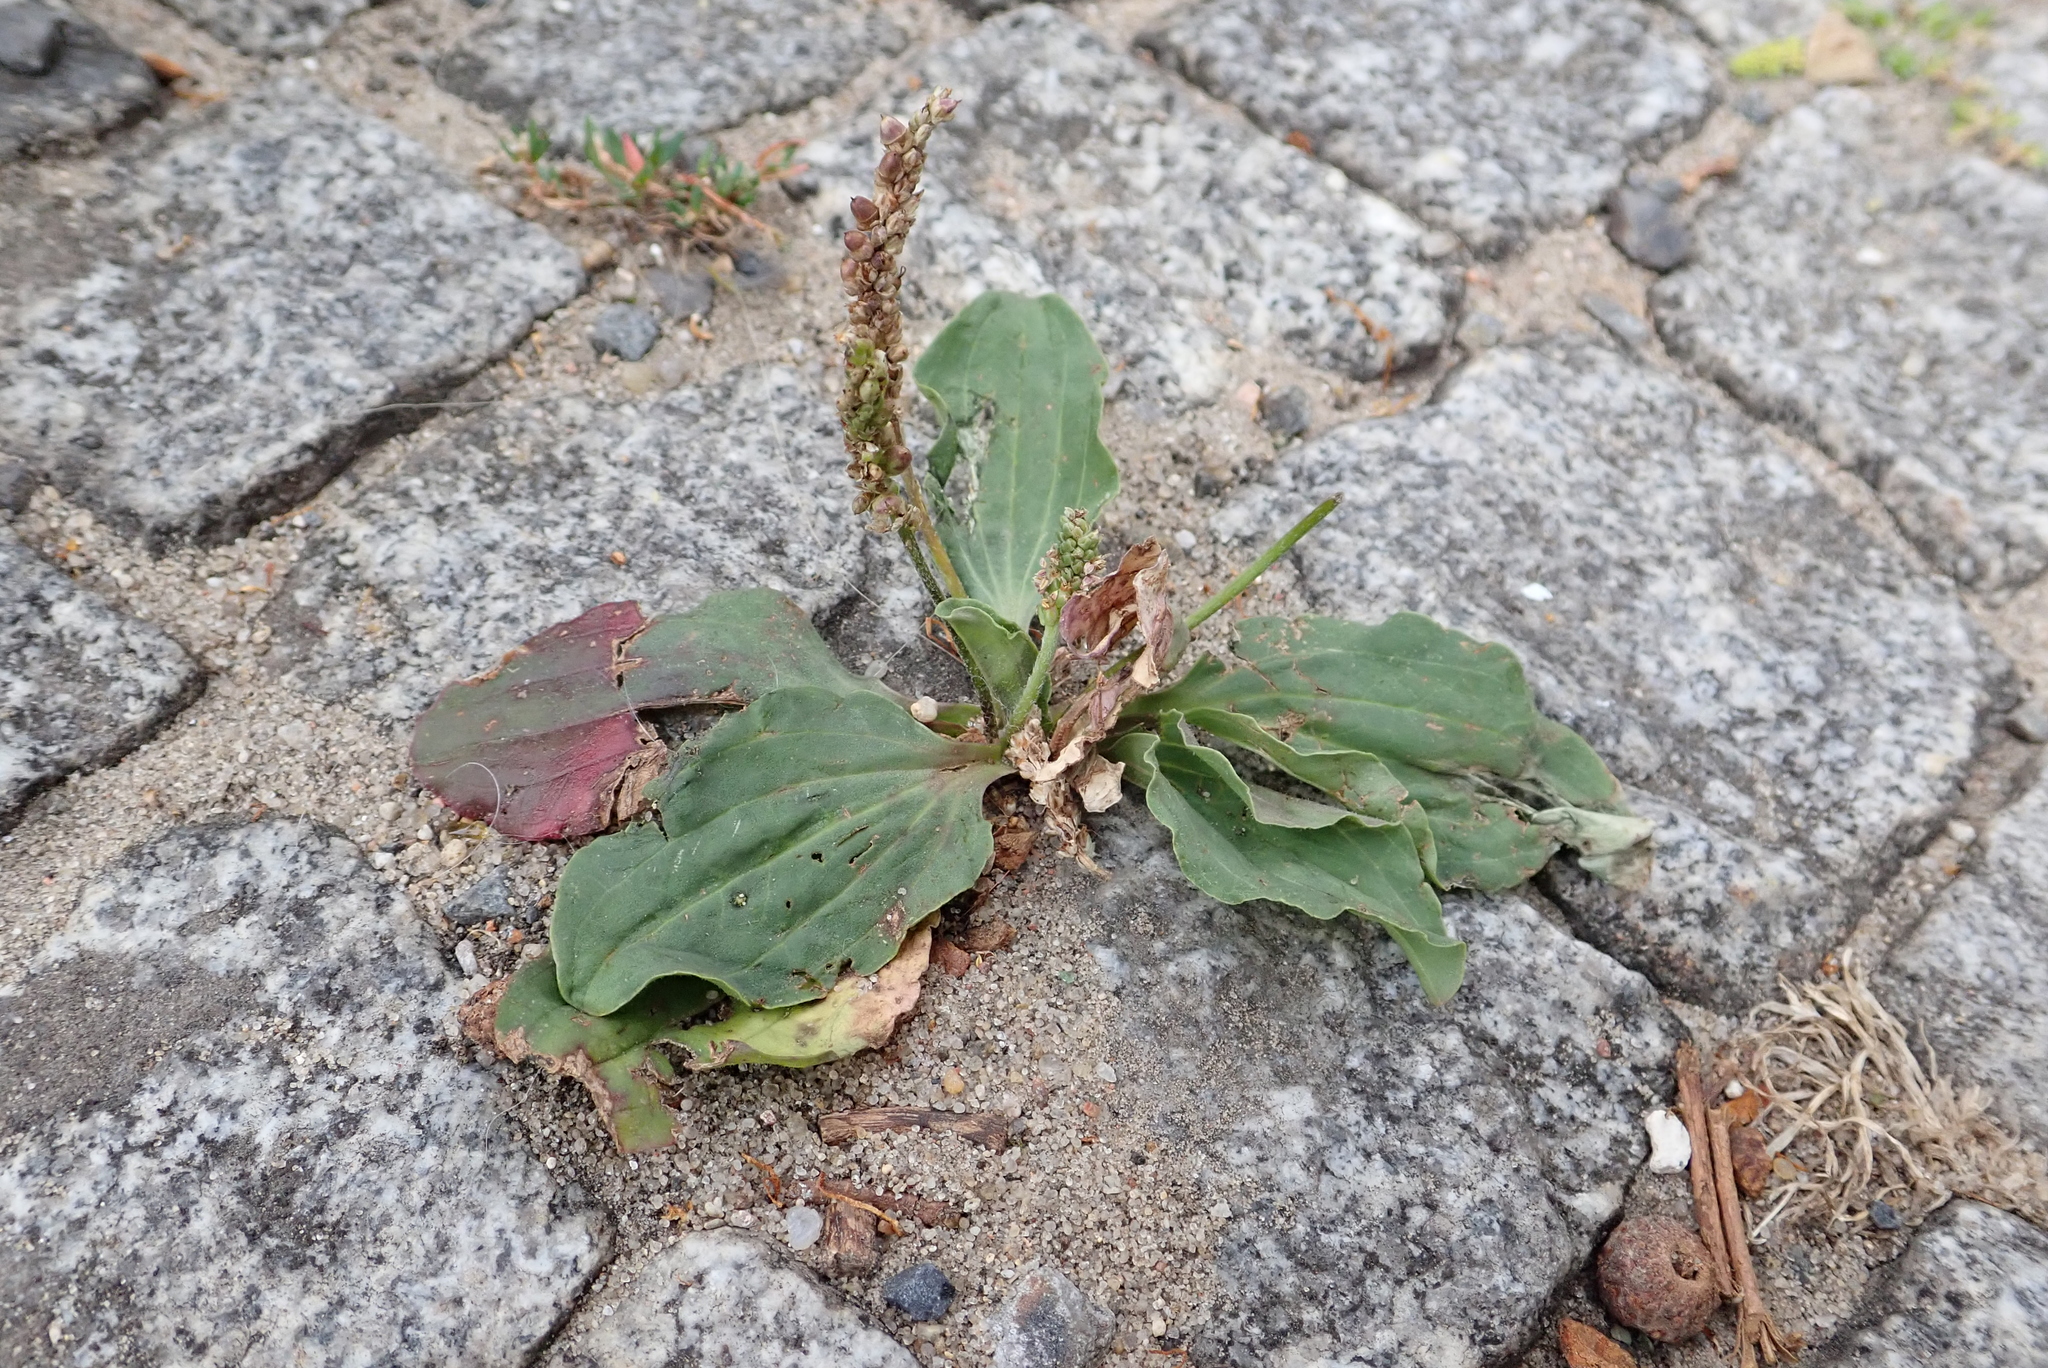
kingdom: Plantae
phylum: Tracheophyta
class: Magnoliopsida
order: Lamiales
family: Plantaginaceae
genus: Plantago
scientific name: Plantago major
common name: Common plantain
